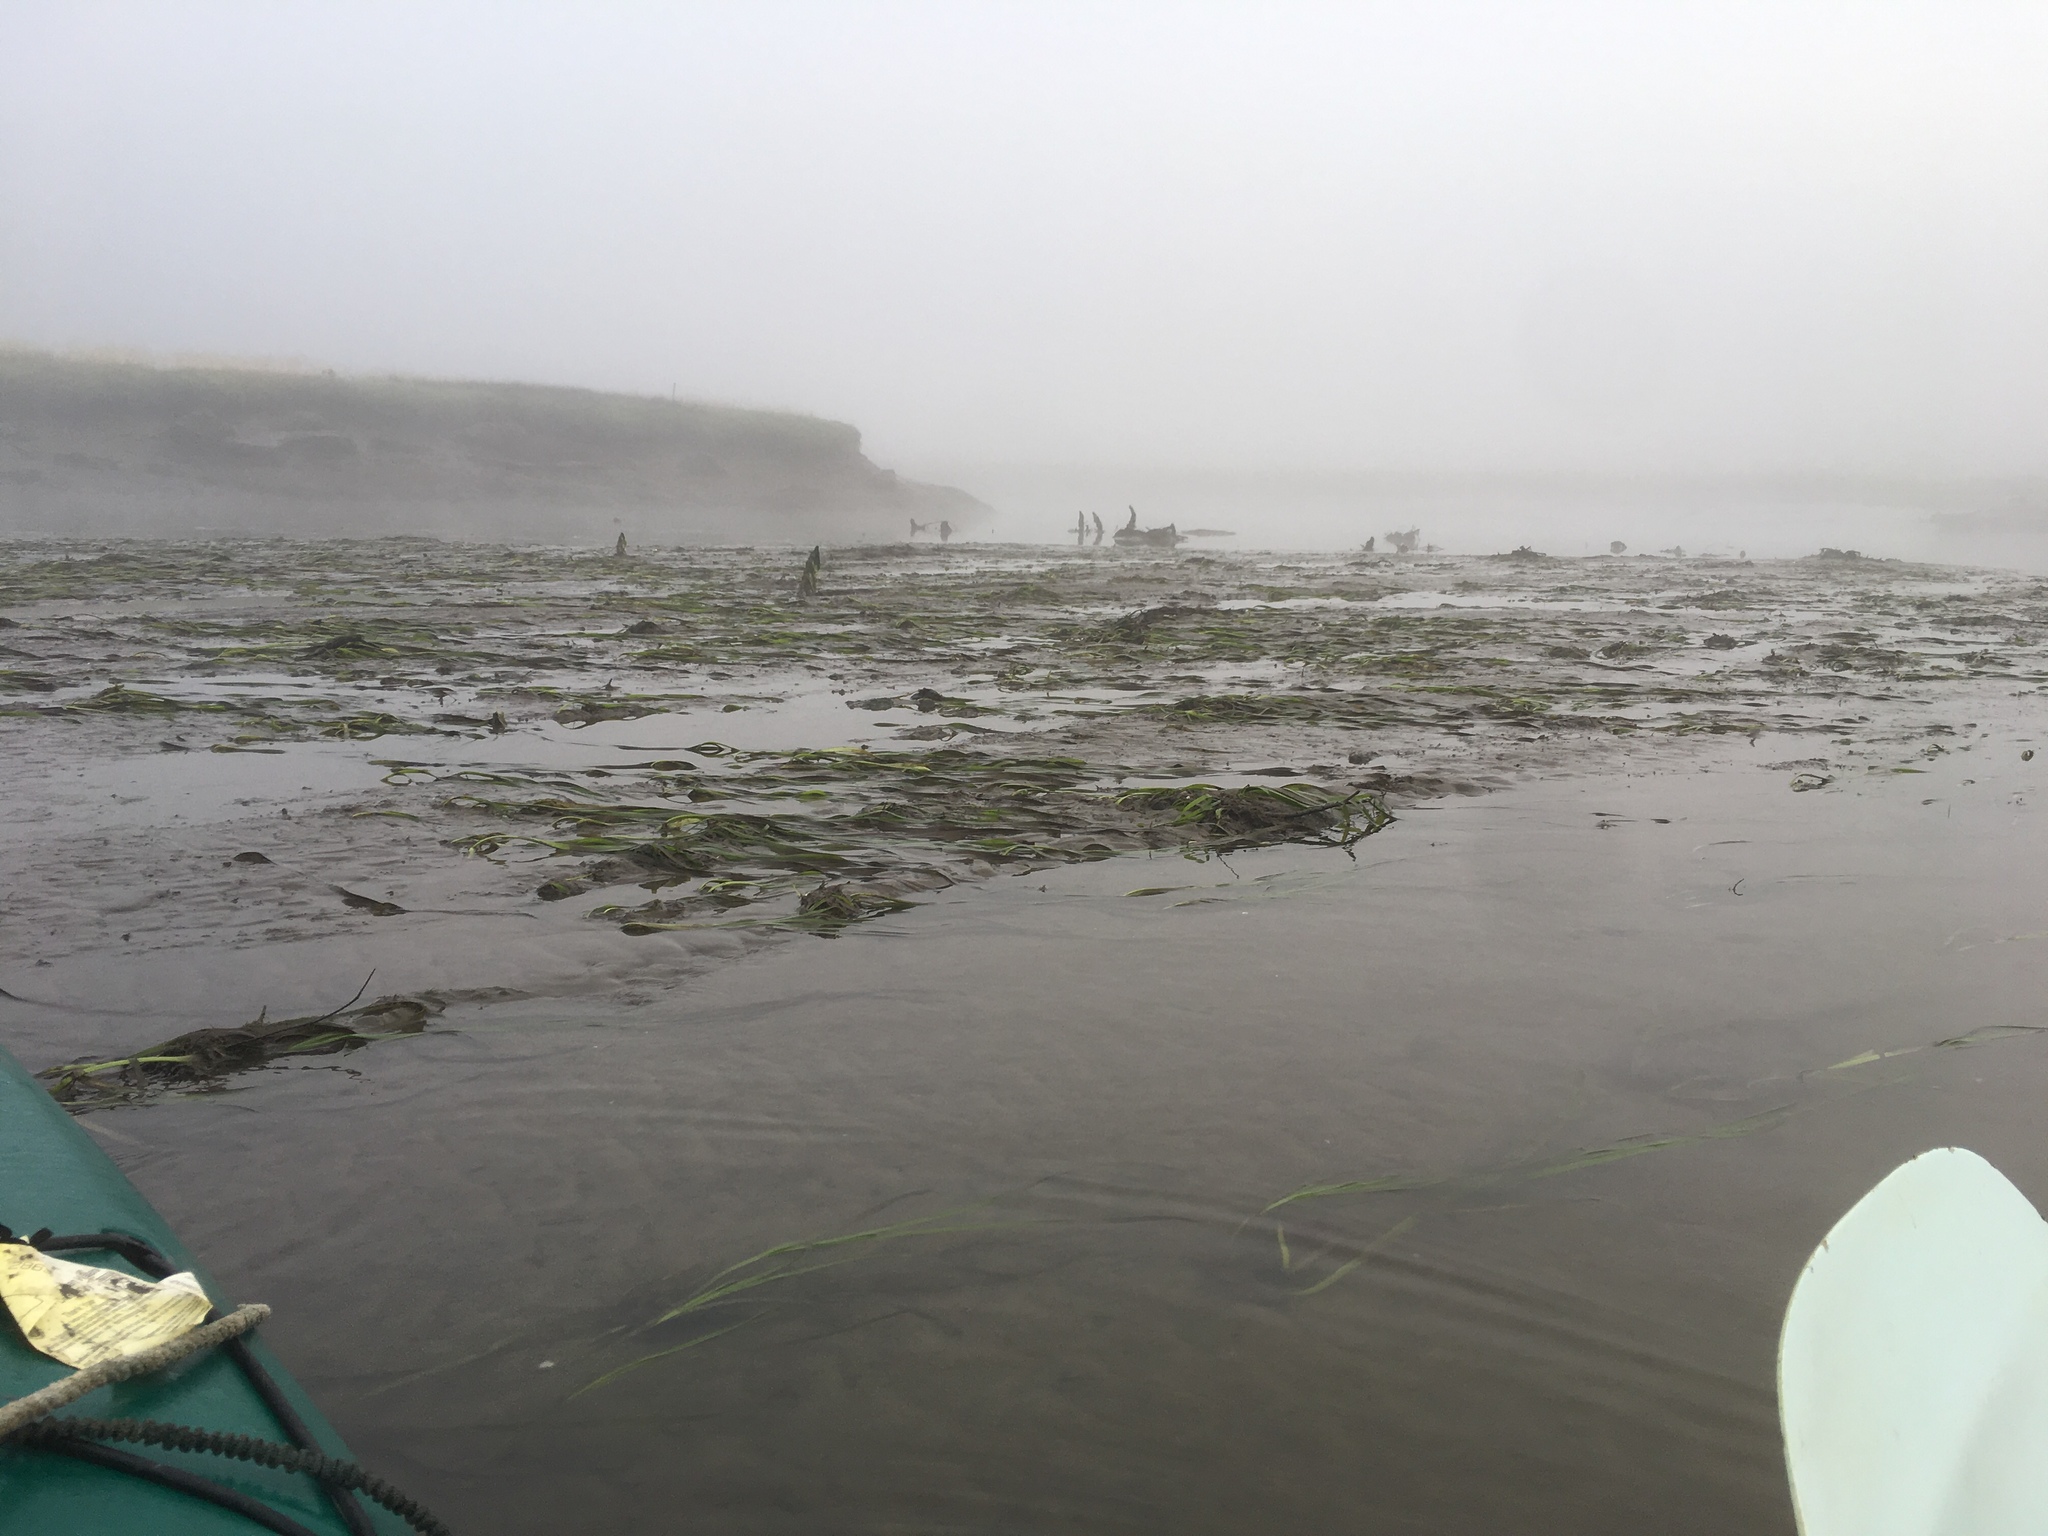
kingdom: Plantae
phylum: Tracheophyta
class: Liliopsida
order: Alismatales
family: Zosteraceae
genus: Zostera
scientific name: Zostera marina
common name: Eelgrass
